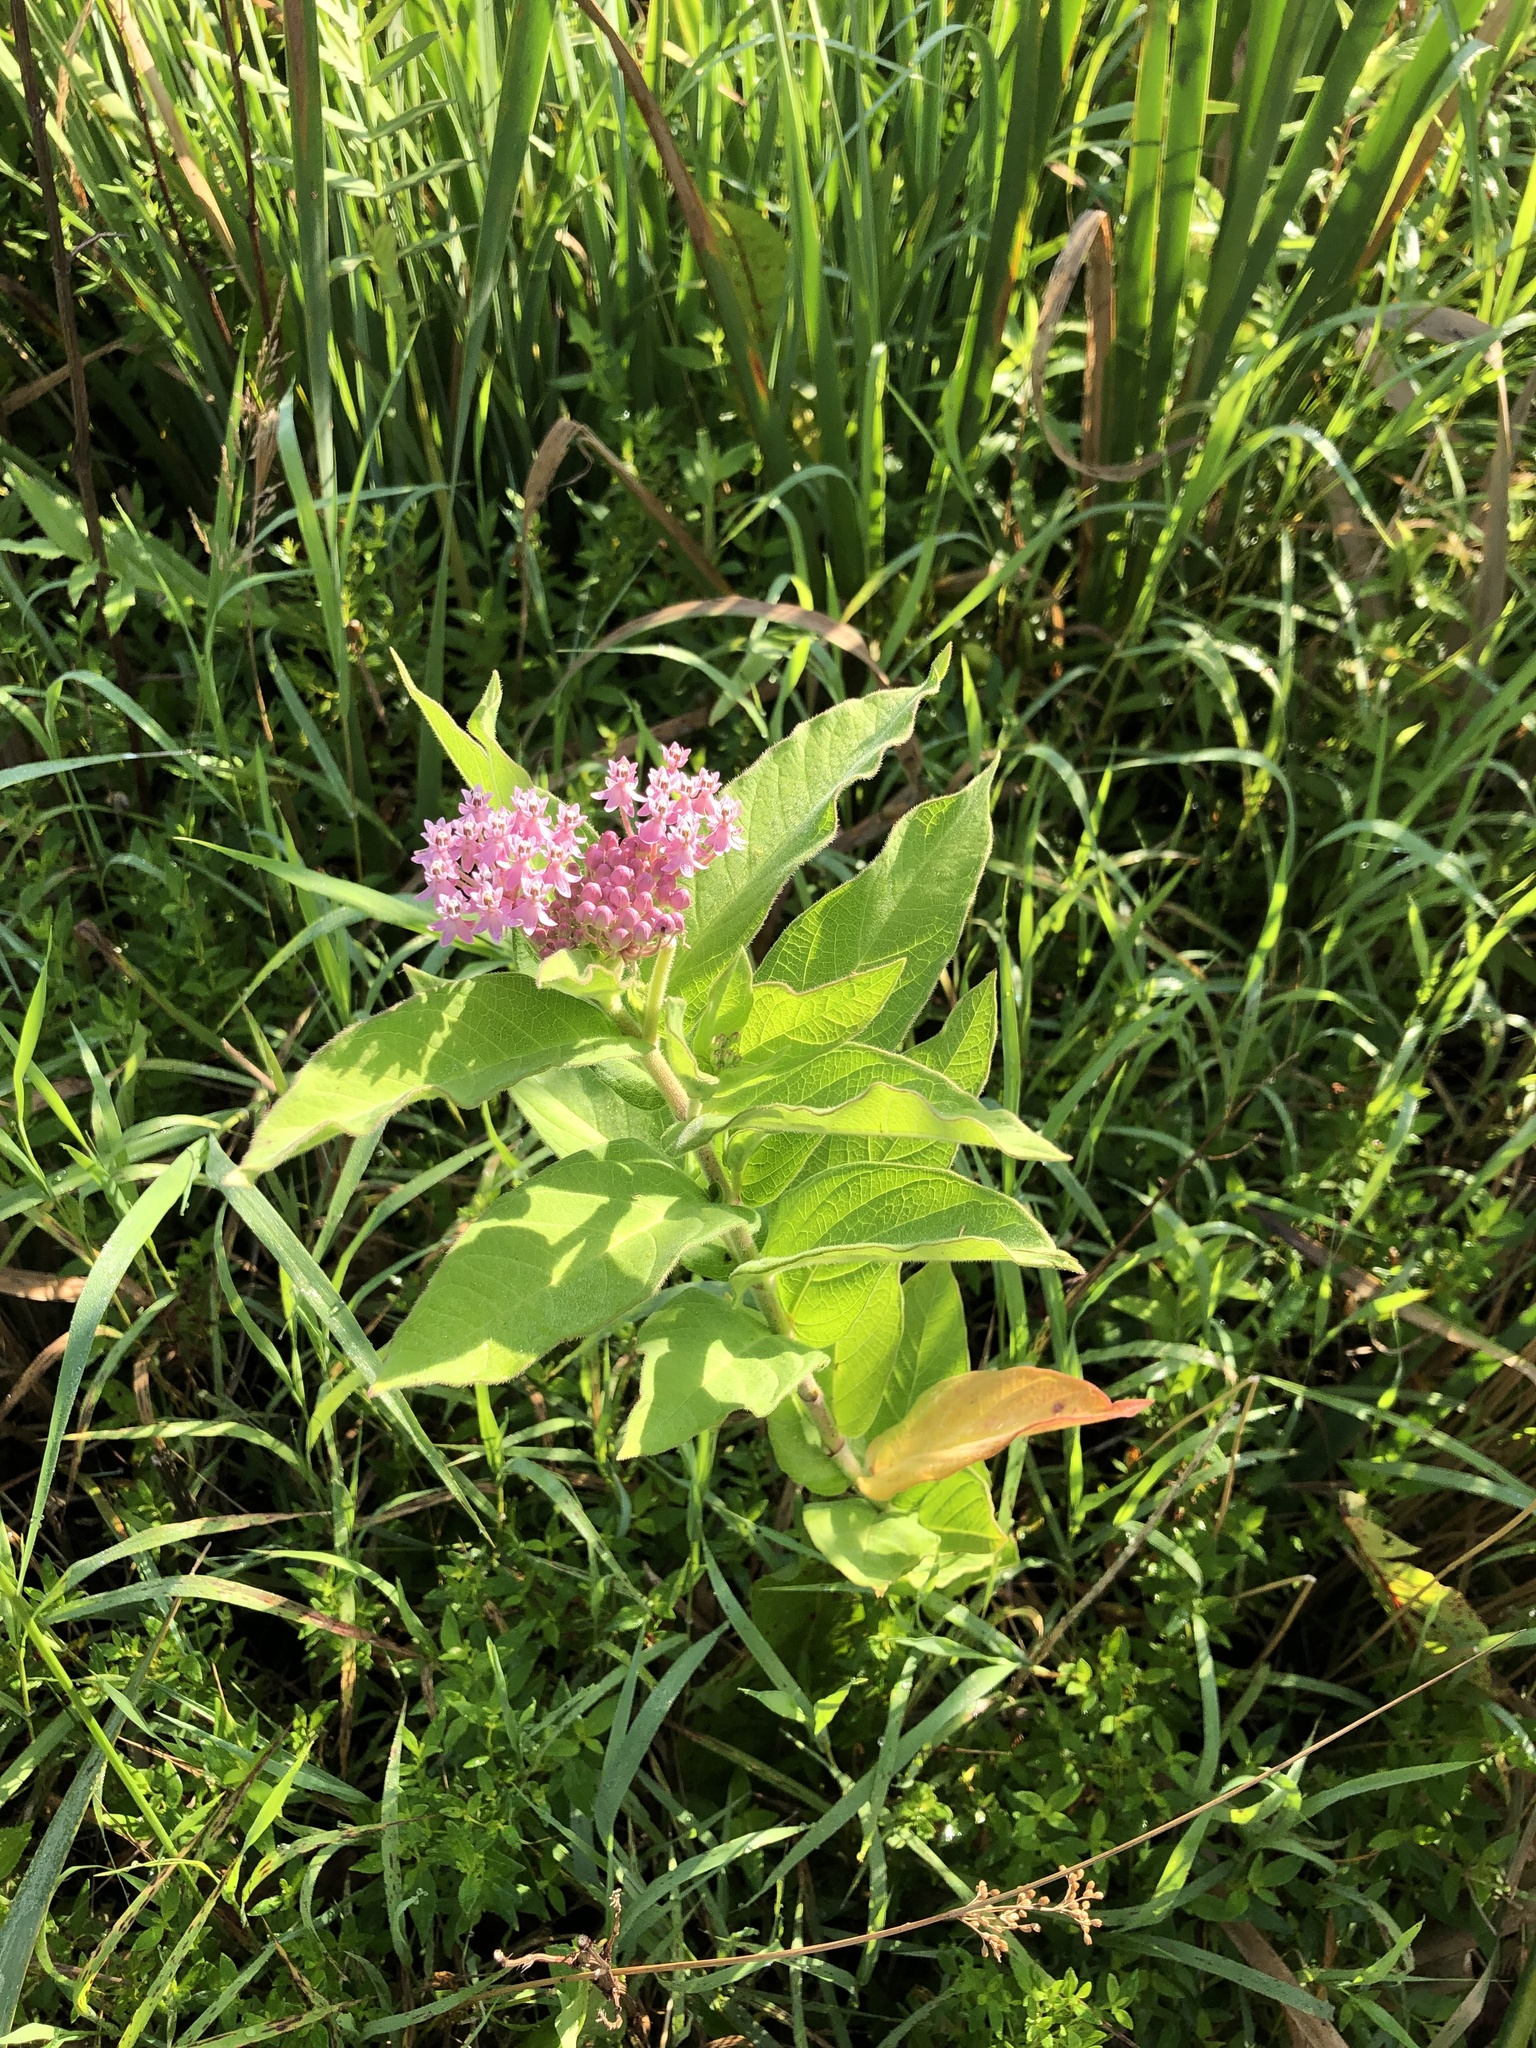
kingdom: Plantae
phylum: Tracheophyta
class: Magnoliopsida
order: Gentianales
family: Apocynaceae
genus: Asclepias
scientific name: Asclepias incarnata
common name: Swamp milkweed
